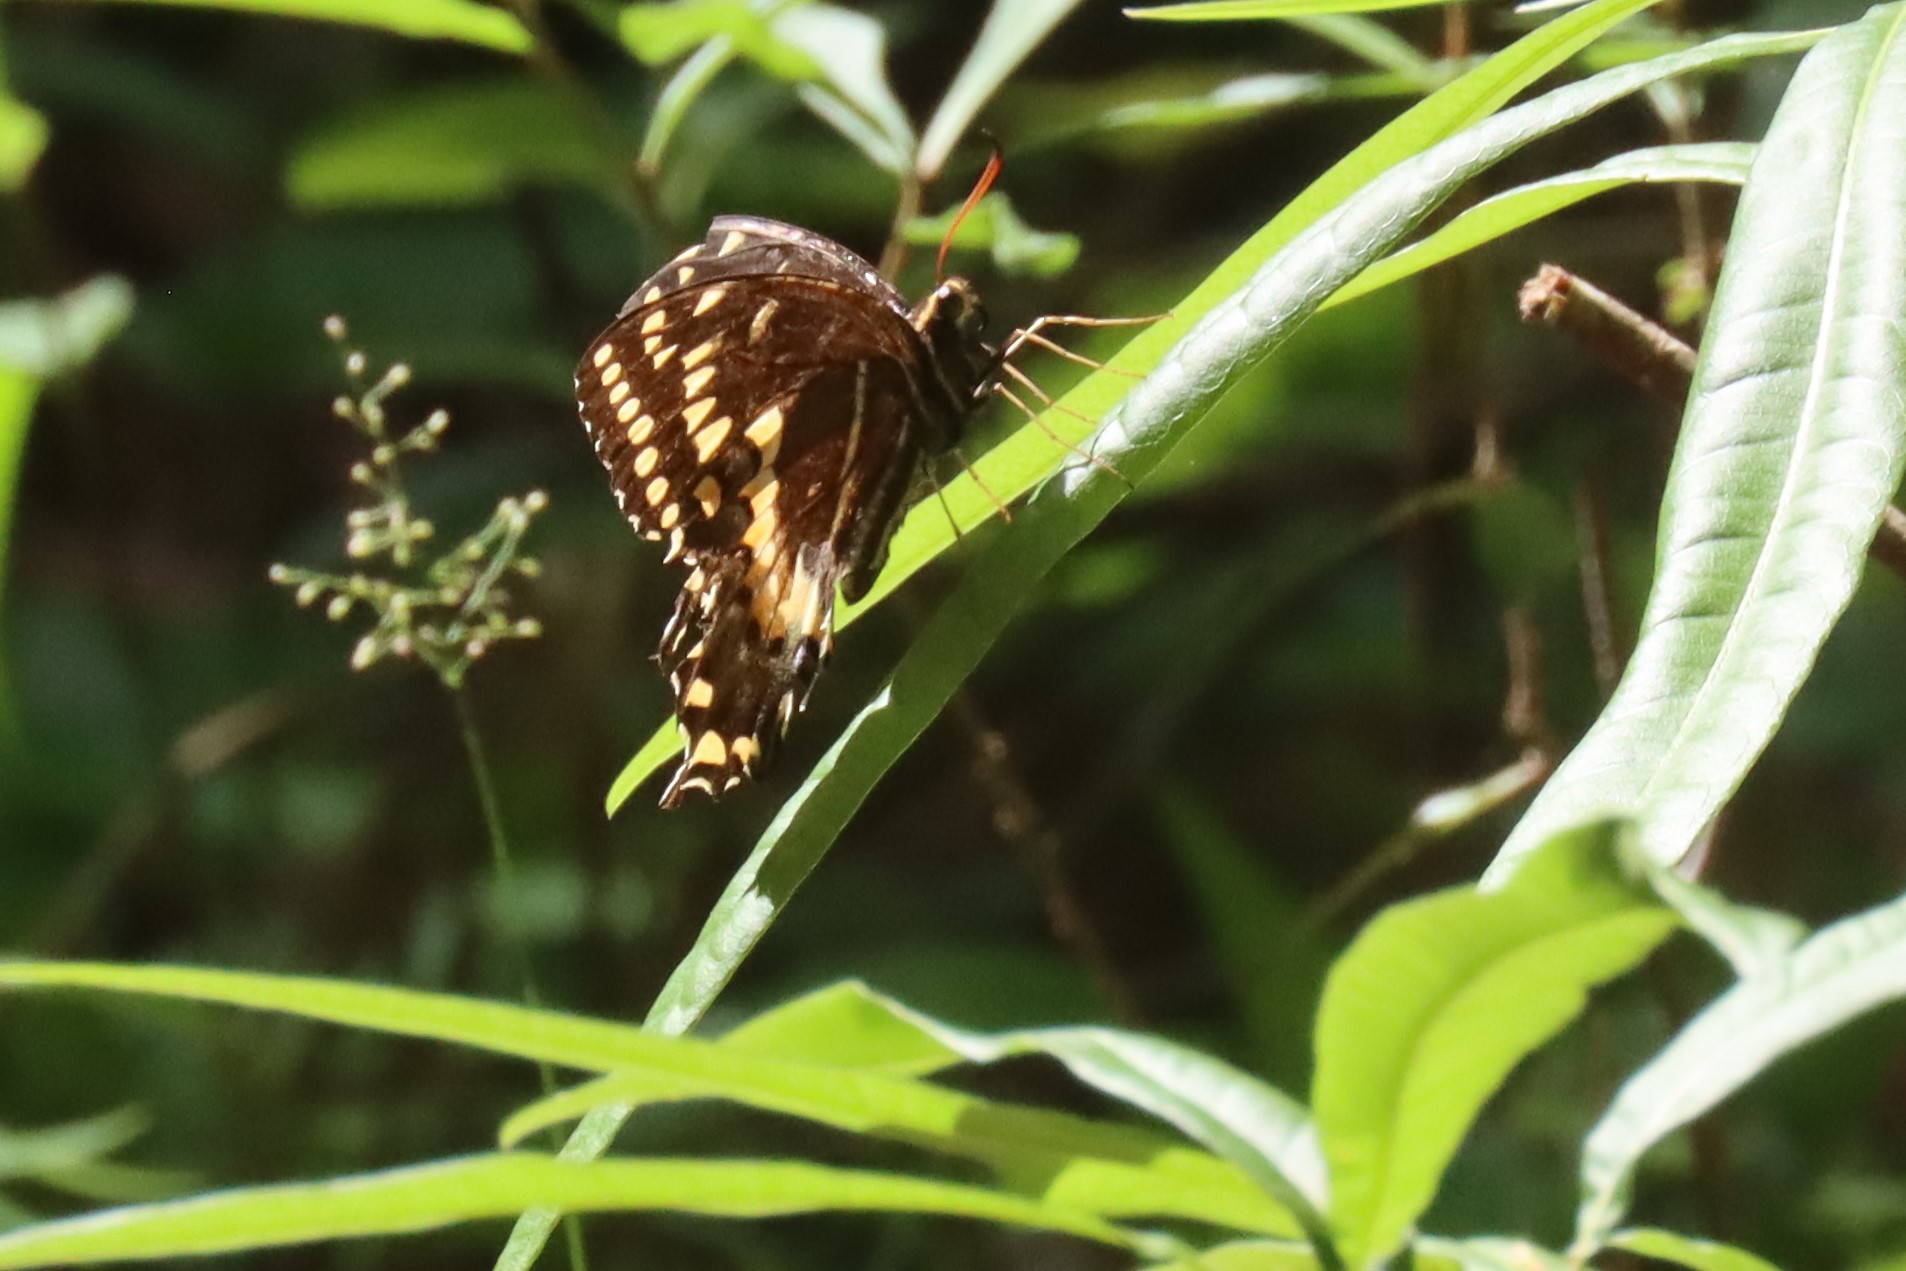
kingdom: Animalia
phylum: Arthropoda
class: Insecta
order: Lepidoptera
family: Papilionidae
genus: Papilio
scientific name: Papilio palamedes
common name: Palamedes swallowtail
